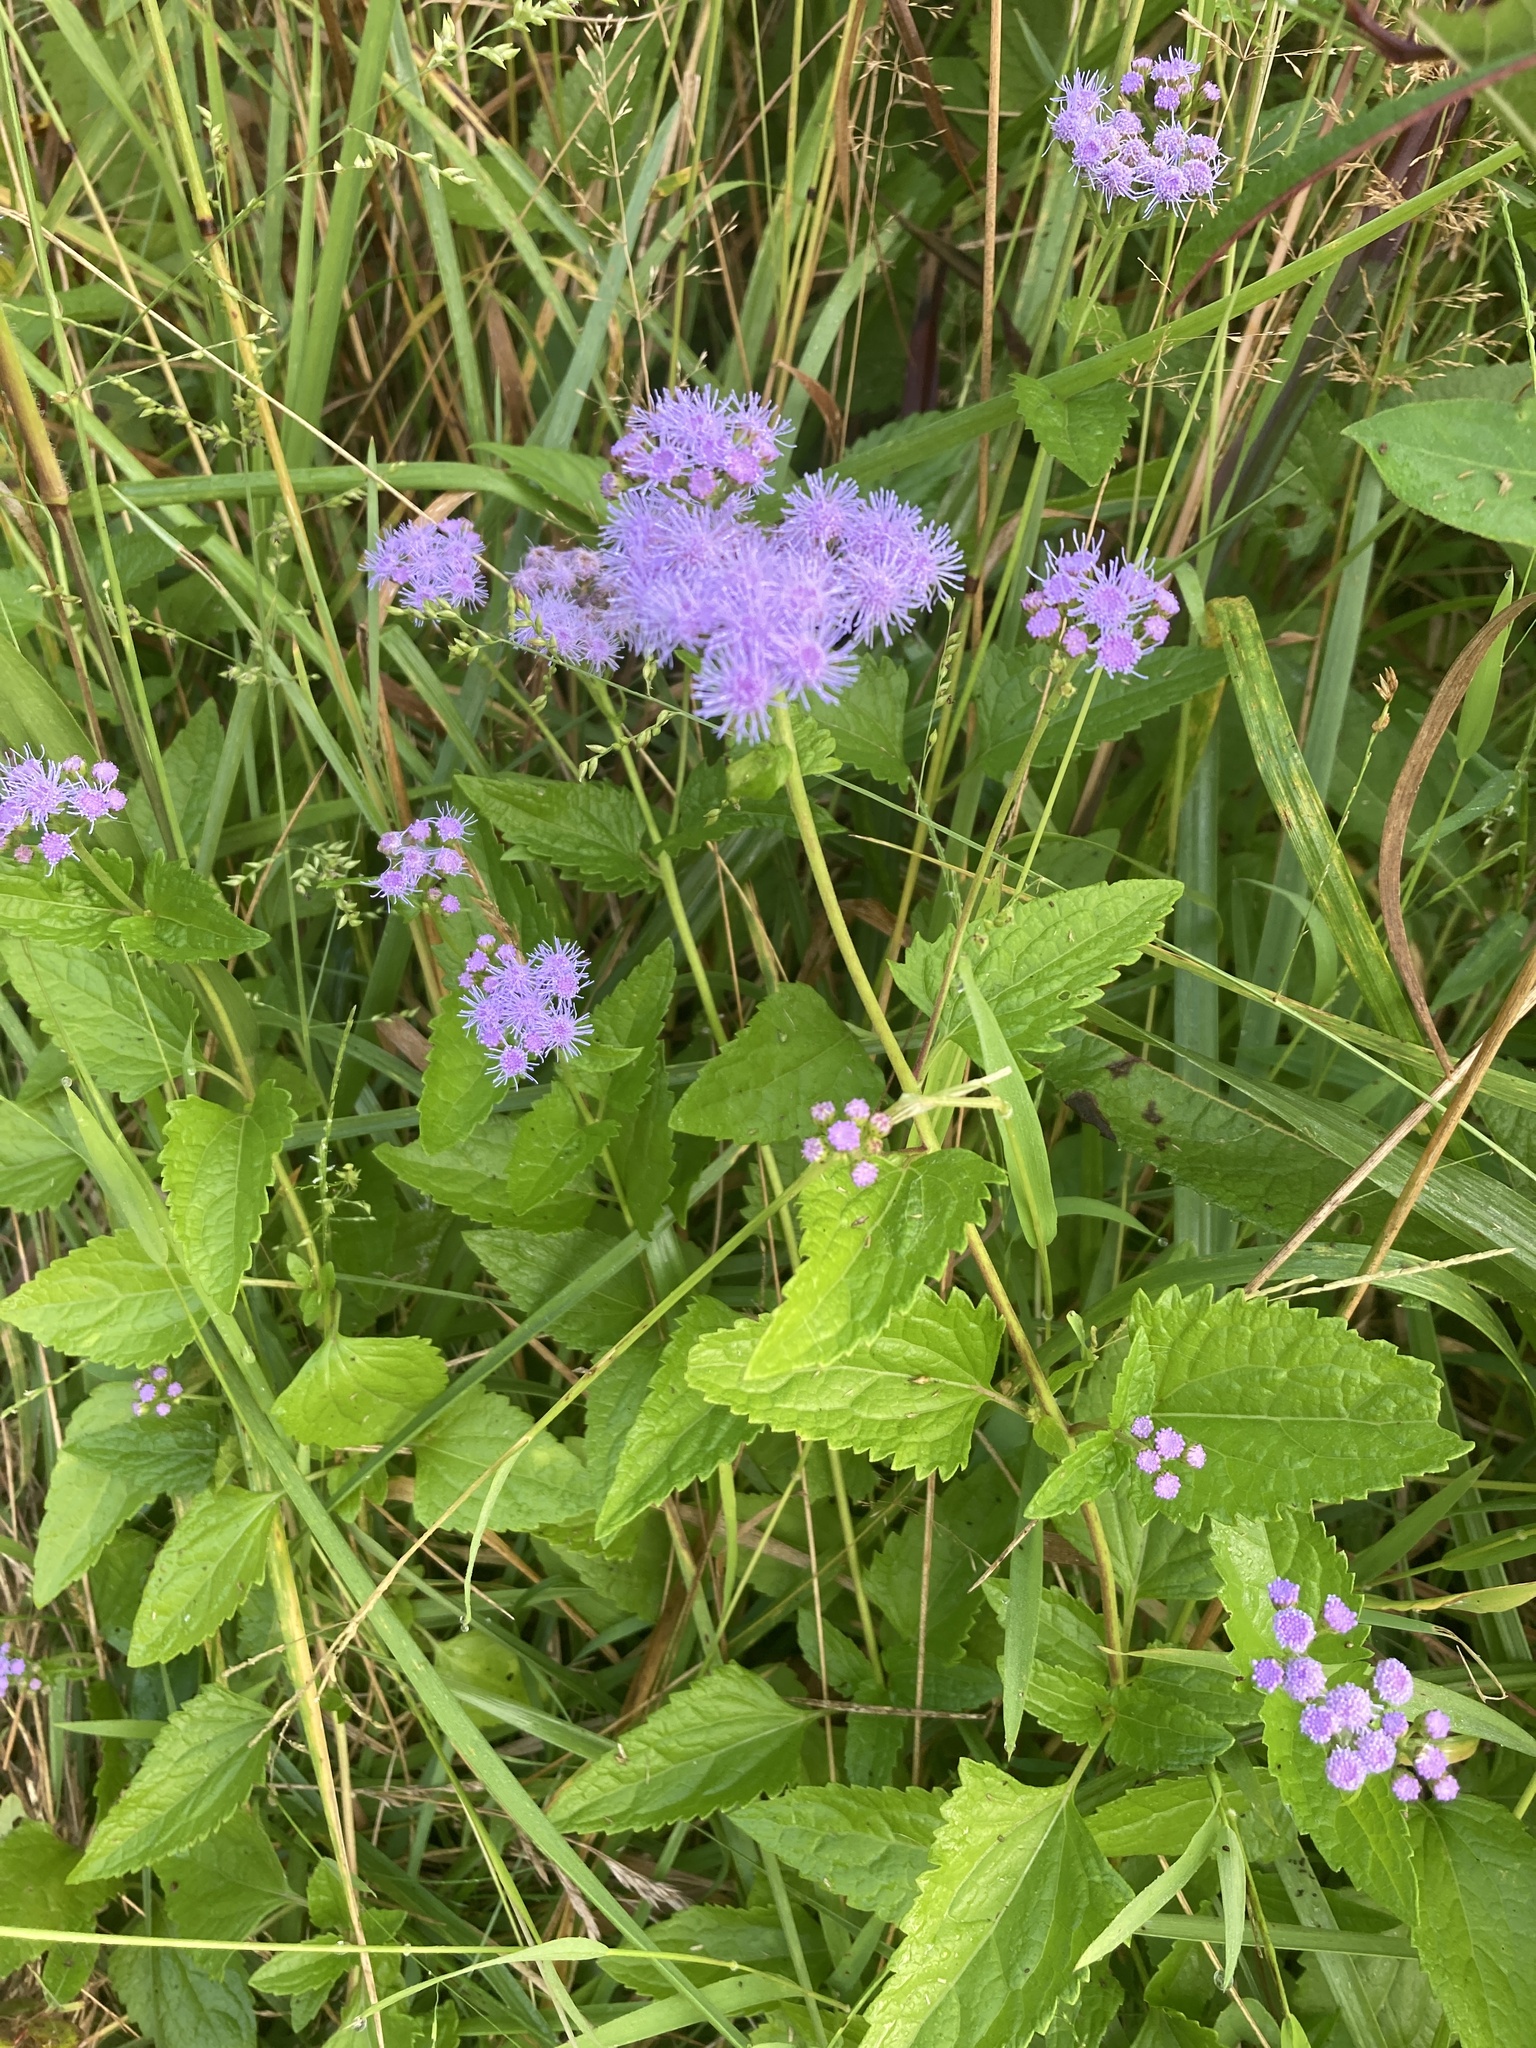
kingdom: Plantae
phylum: Tracheophyta
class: Magnoliopsida
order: Asterales
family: Asteraceae
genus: Conoclinium
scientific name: Conoclinium coelestinum
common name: Blue mistflower
